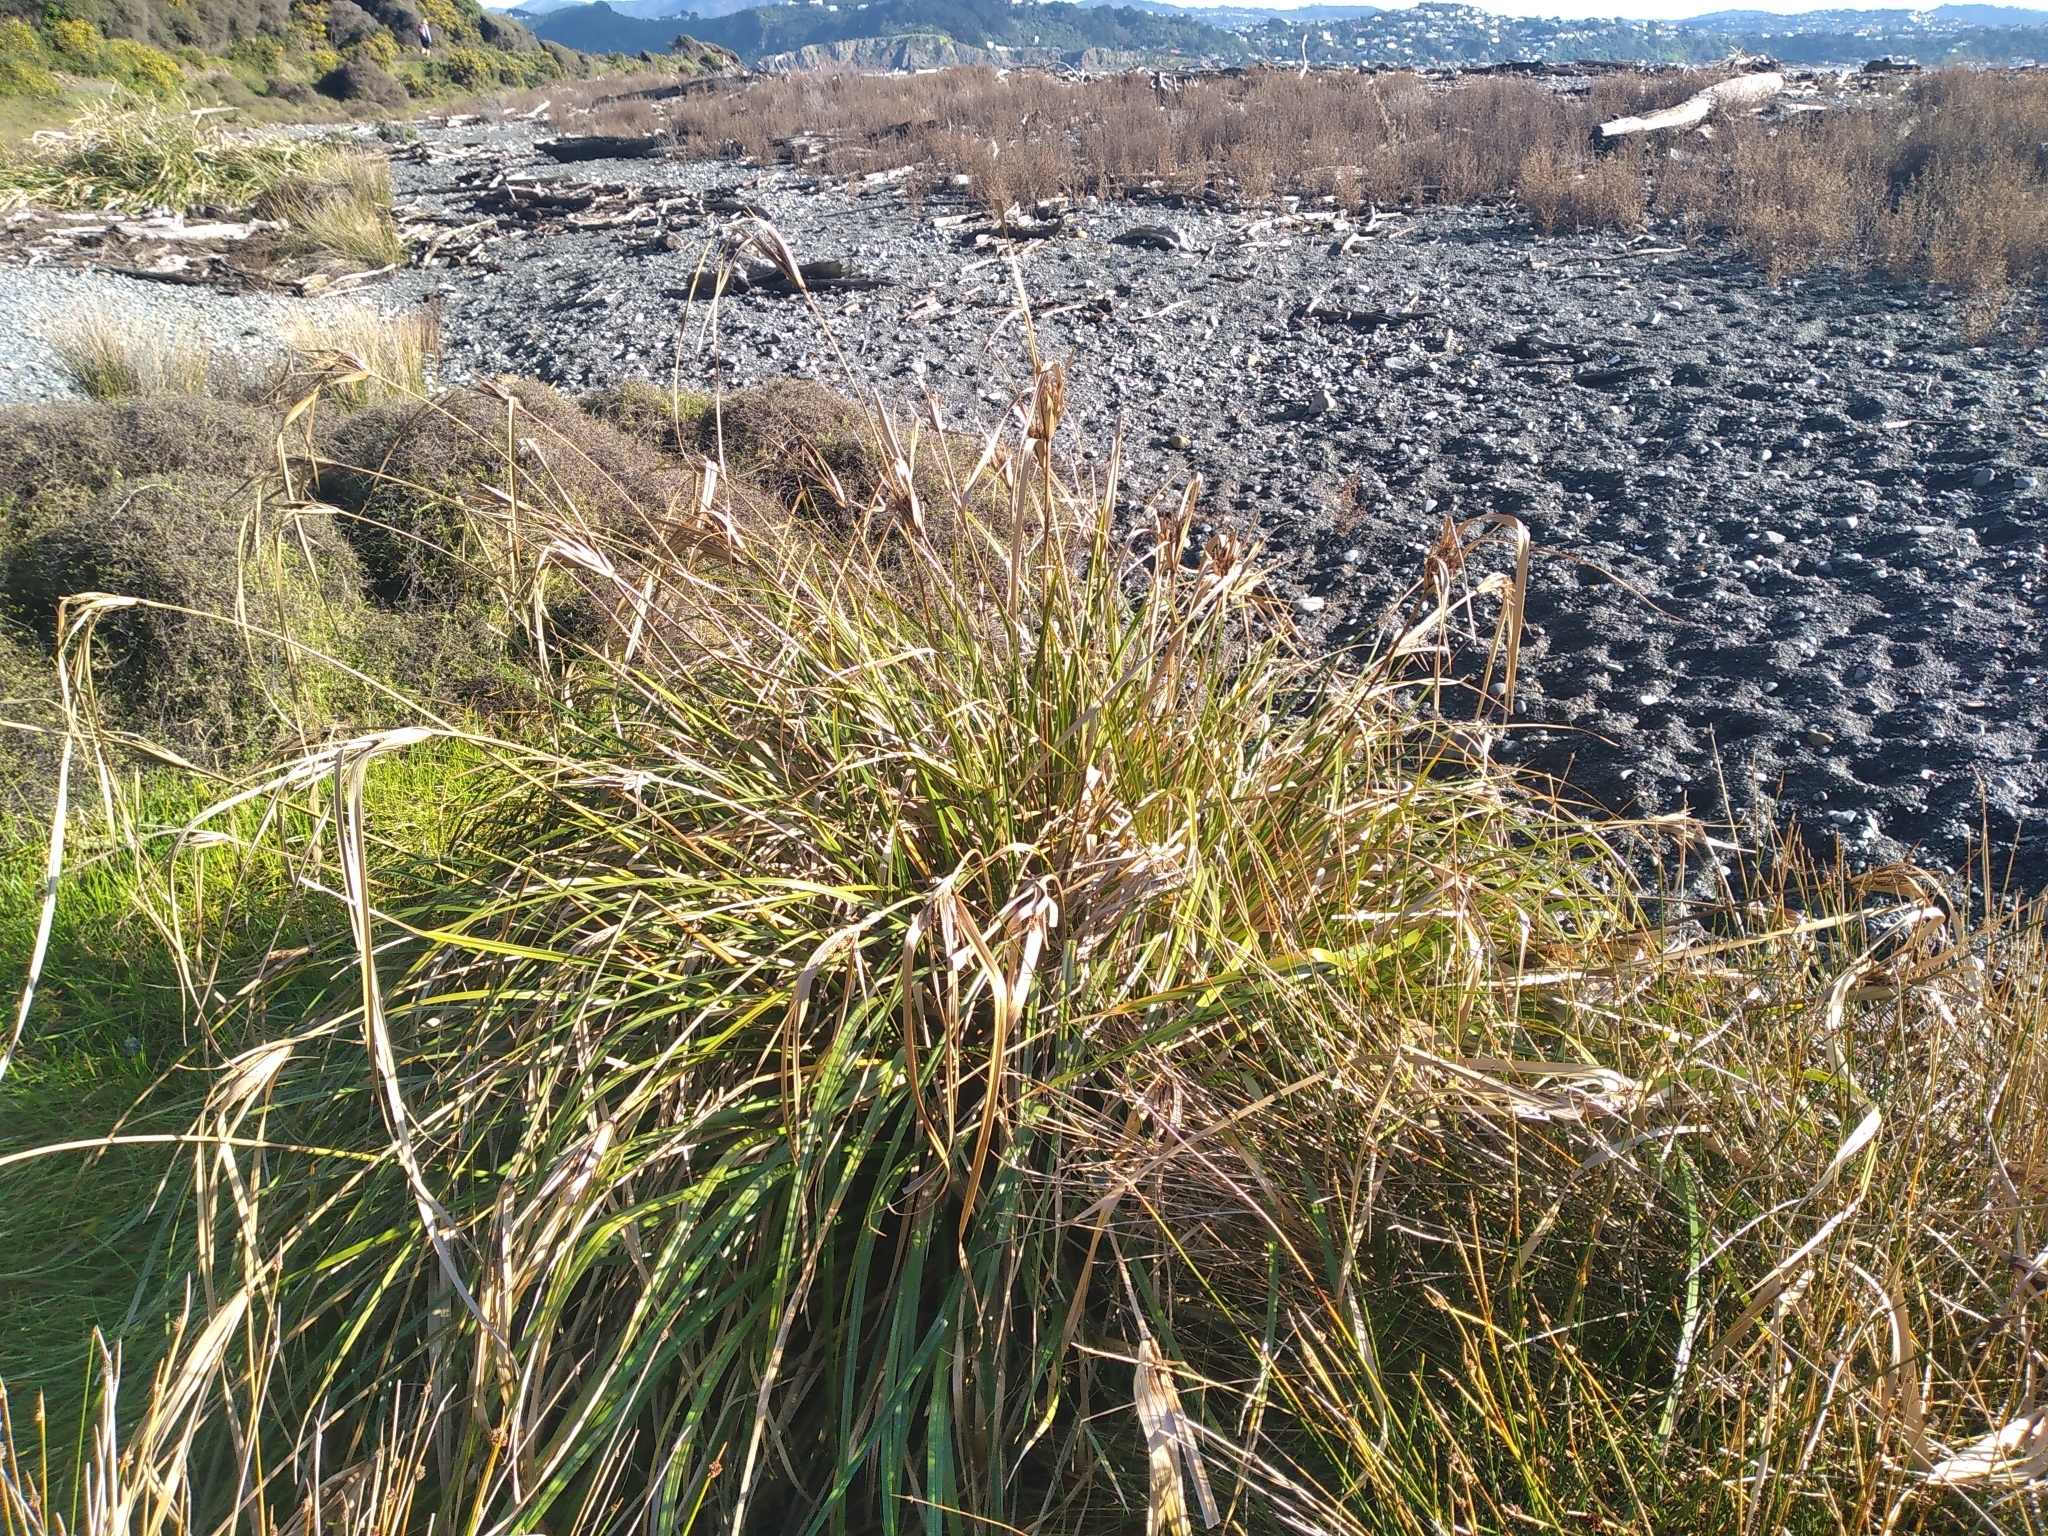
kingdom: Plantae
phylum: Tracheophyta
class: Liliopsida
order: Poales
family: Cyperaceae
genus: Cyperus
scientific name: Cyperus ustulatus
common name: Giant umbrella-sedge
